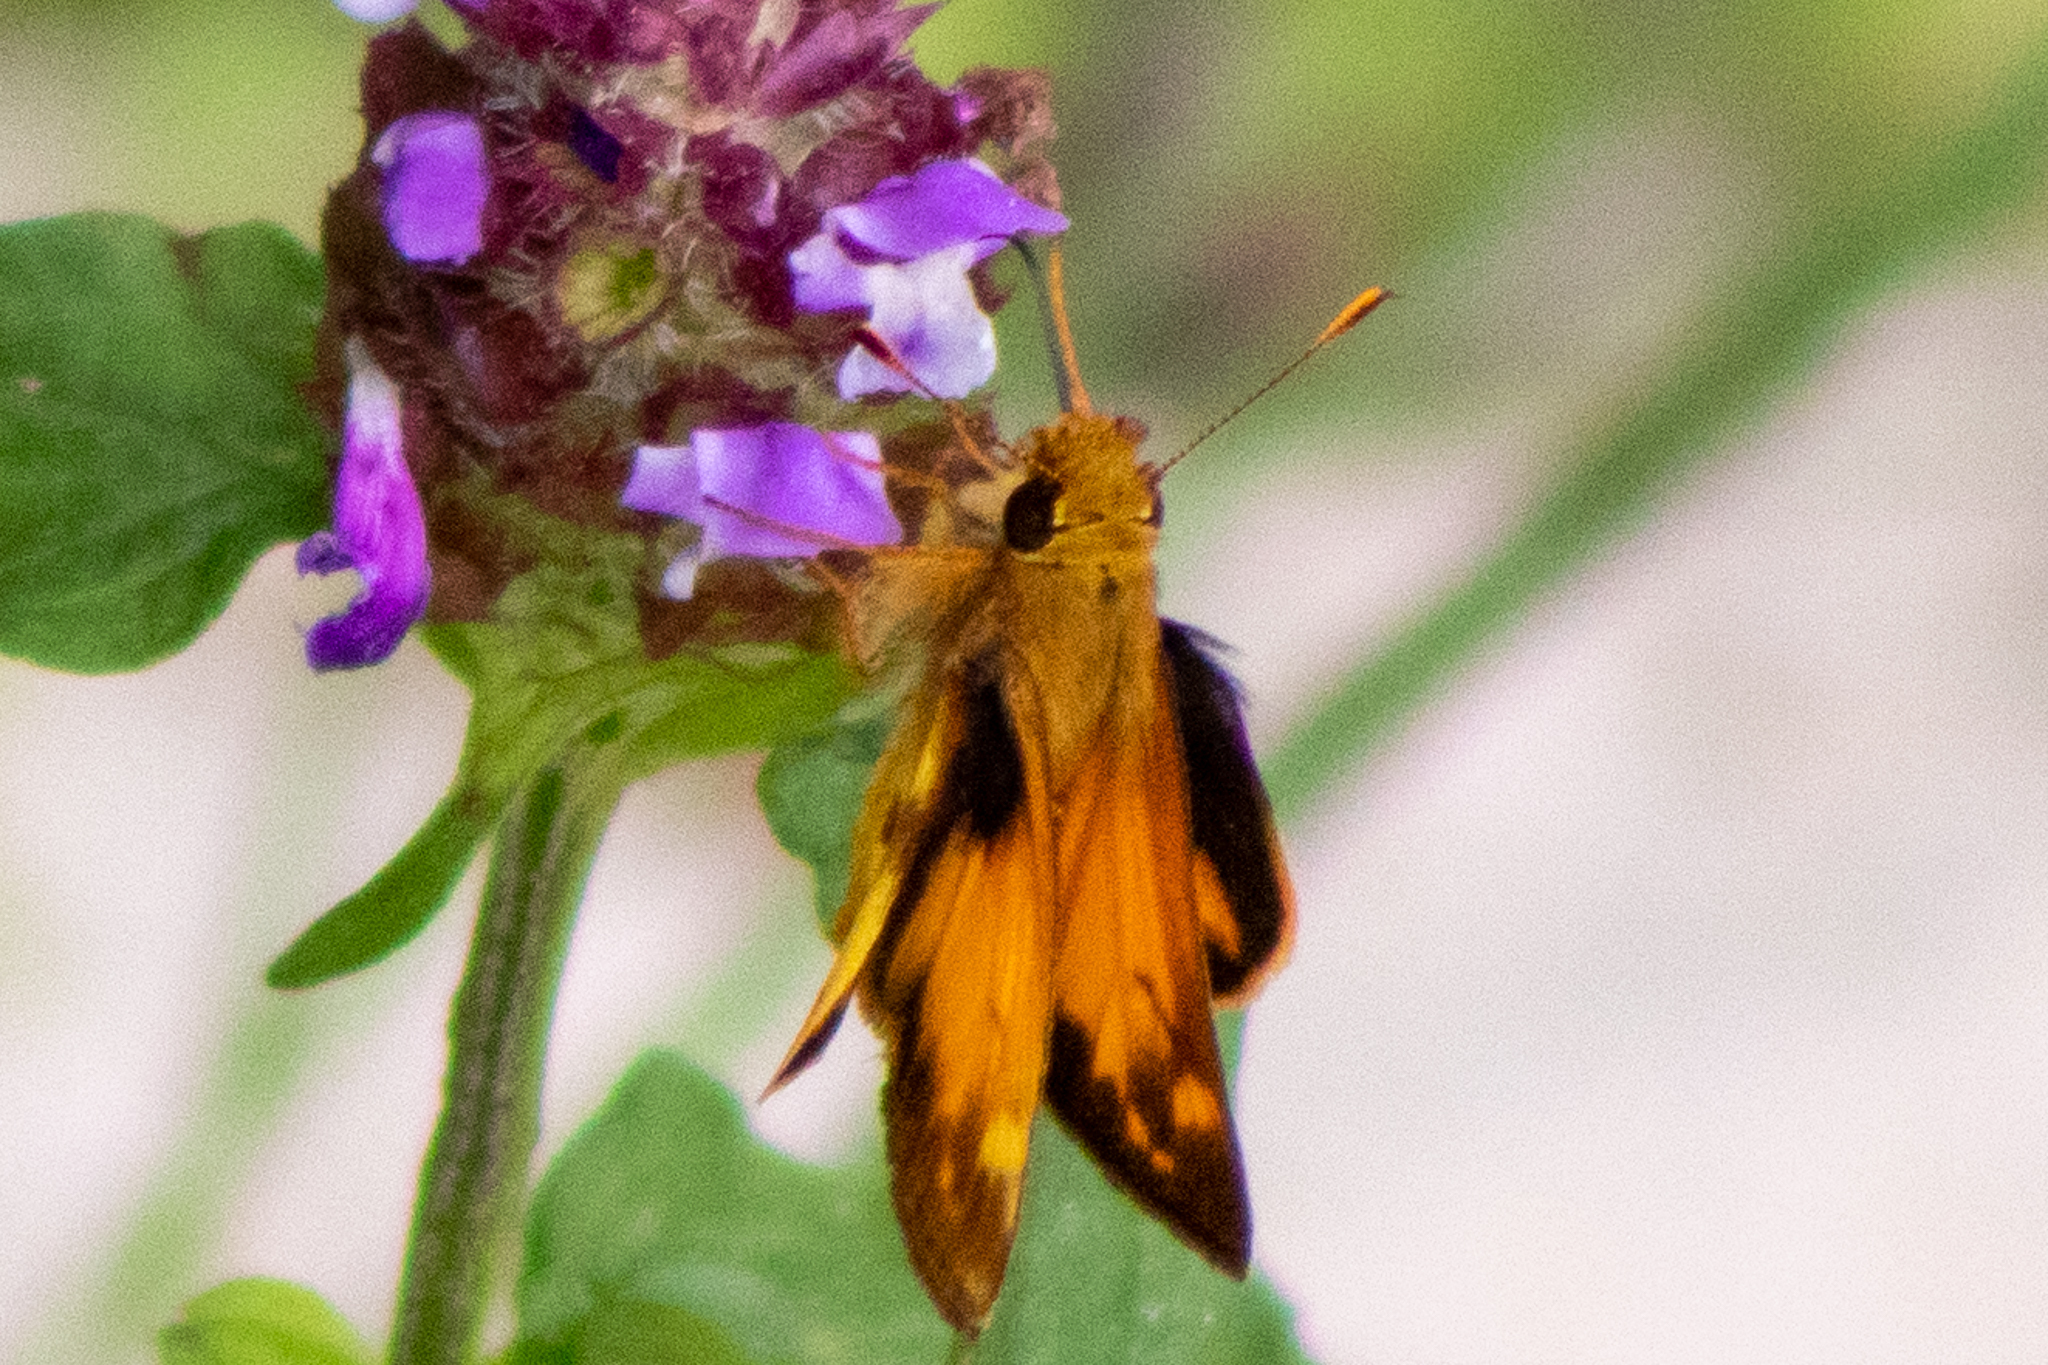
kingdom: Animalia
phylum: Arthropoda
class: Insecta
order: Lepidoptera
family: Hesperiidae
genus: Lon
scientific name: Lon zabulon
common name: Zabulon skipper
